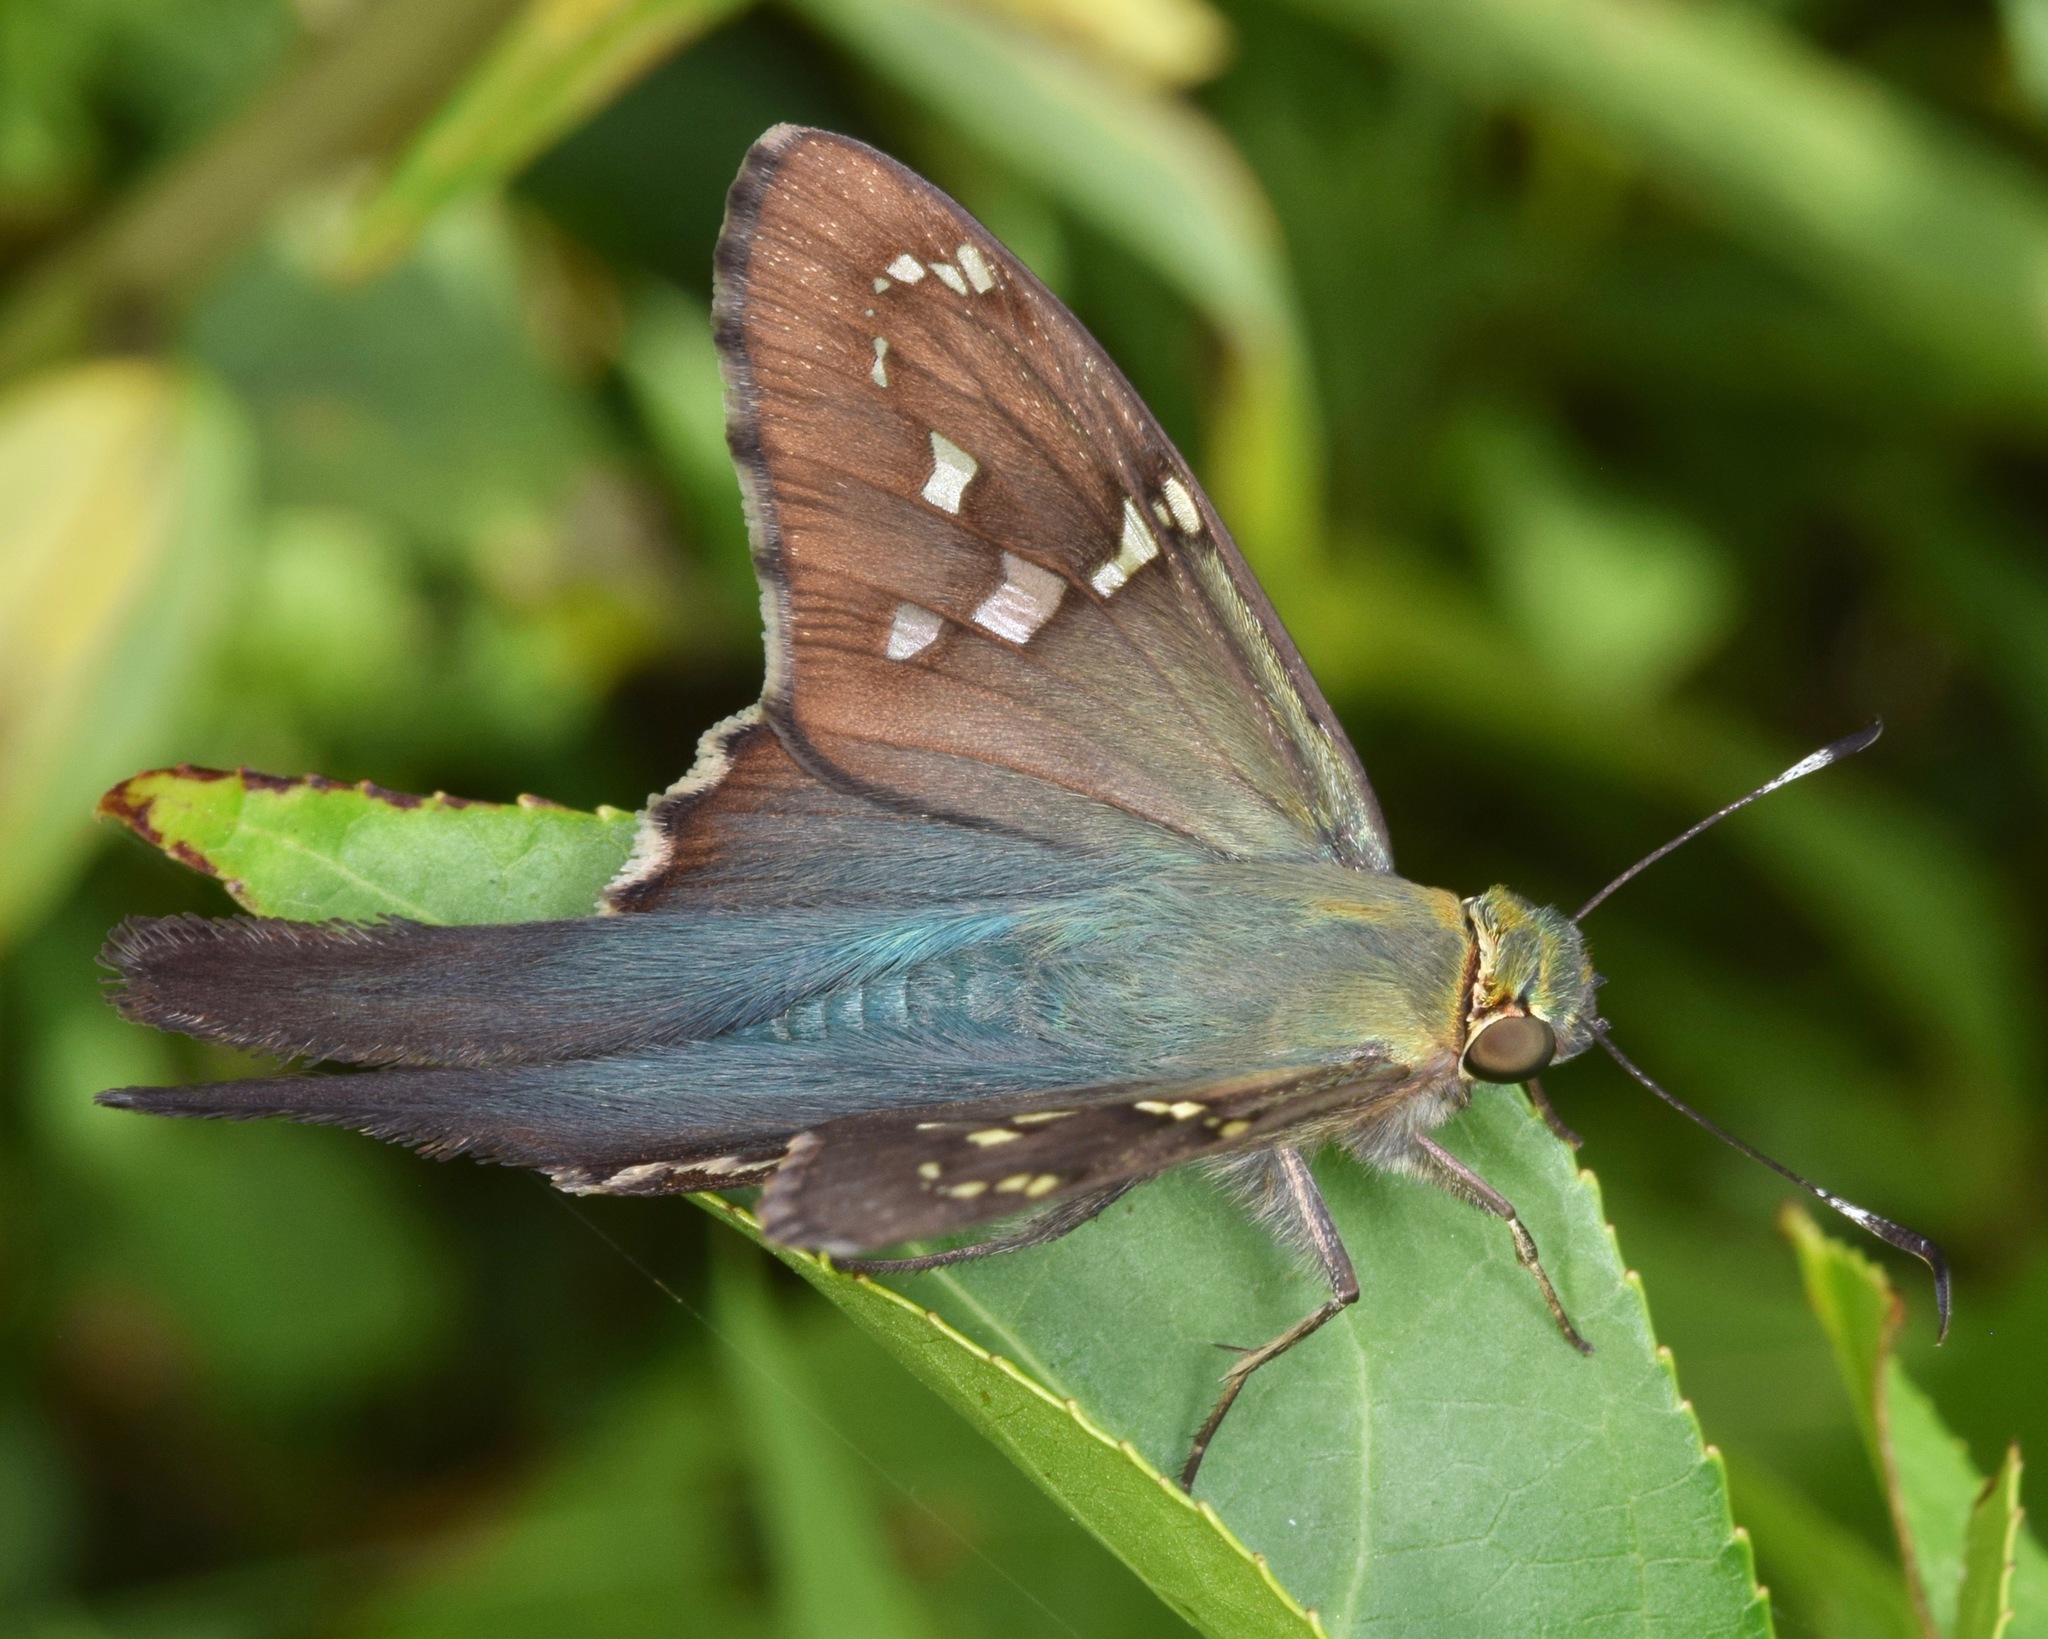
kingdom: Animalia
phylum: Arthropoda
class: Insecta
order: Lepidoptera
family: Hesperiidae
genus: Urbanus
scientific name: Urbanus proteus
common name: Long-tailed skipper
